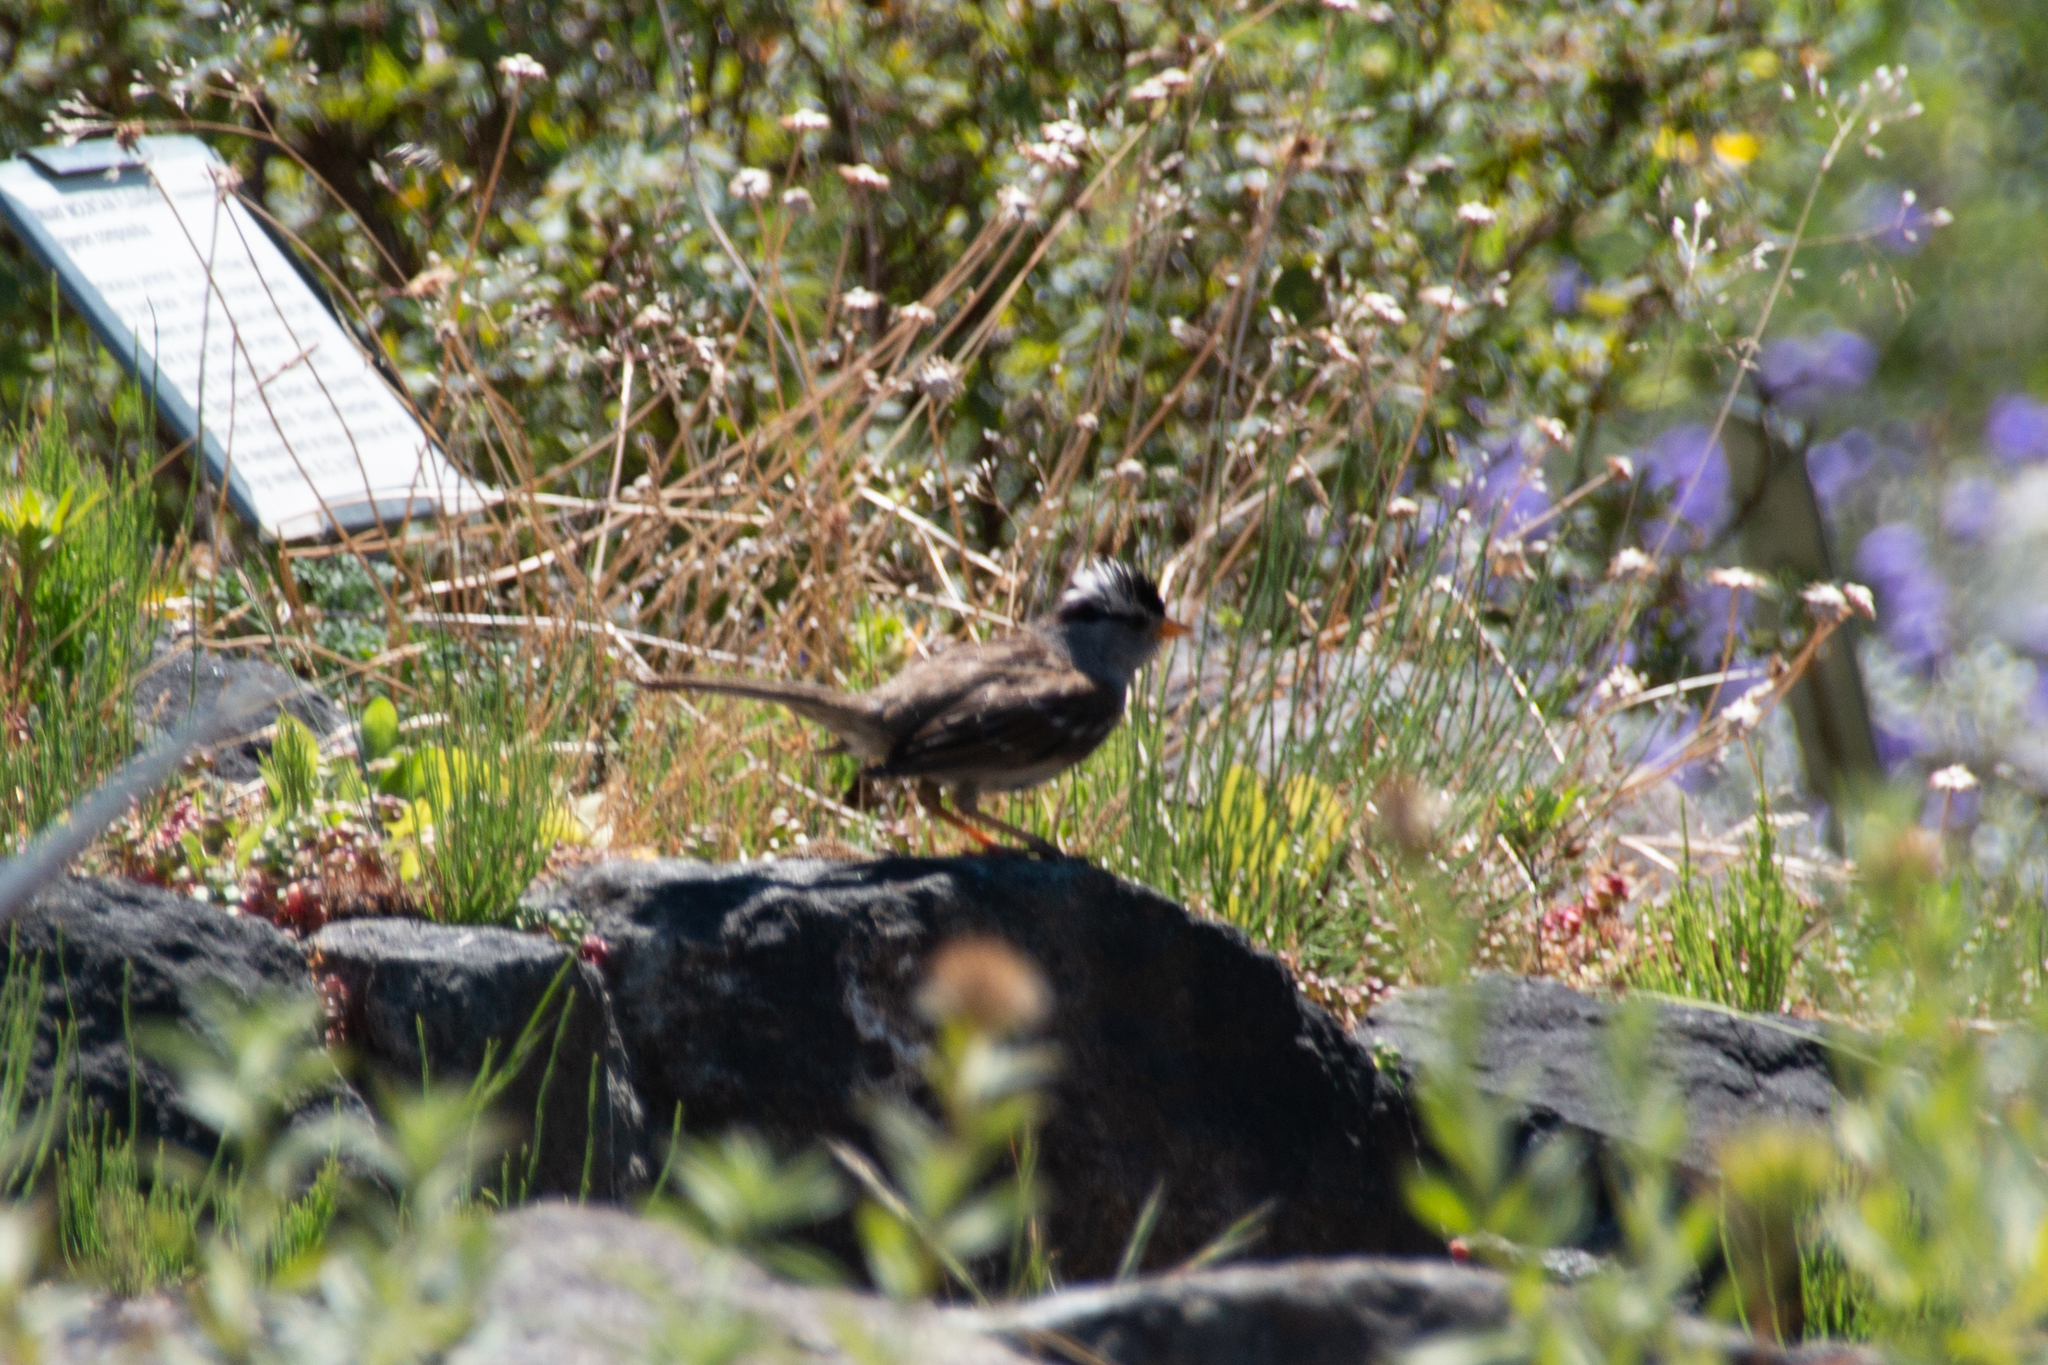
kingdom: Animalia
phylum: Chordata
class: Aves
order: Passeriformes
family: Passerellidae
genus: Zonotrichia
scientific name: Zonotrichia leucophrys
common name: White-crowned sparrow
